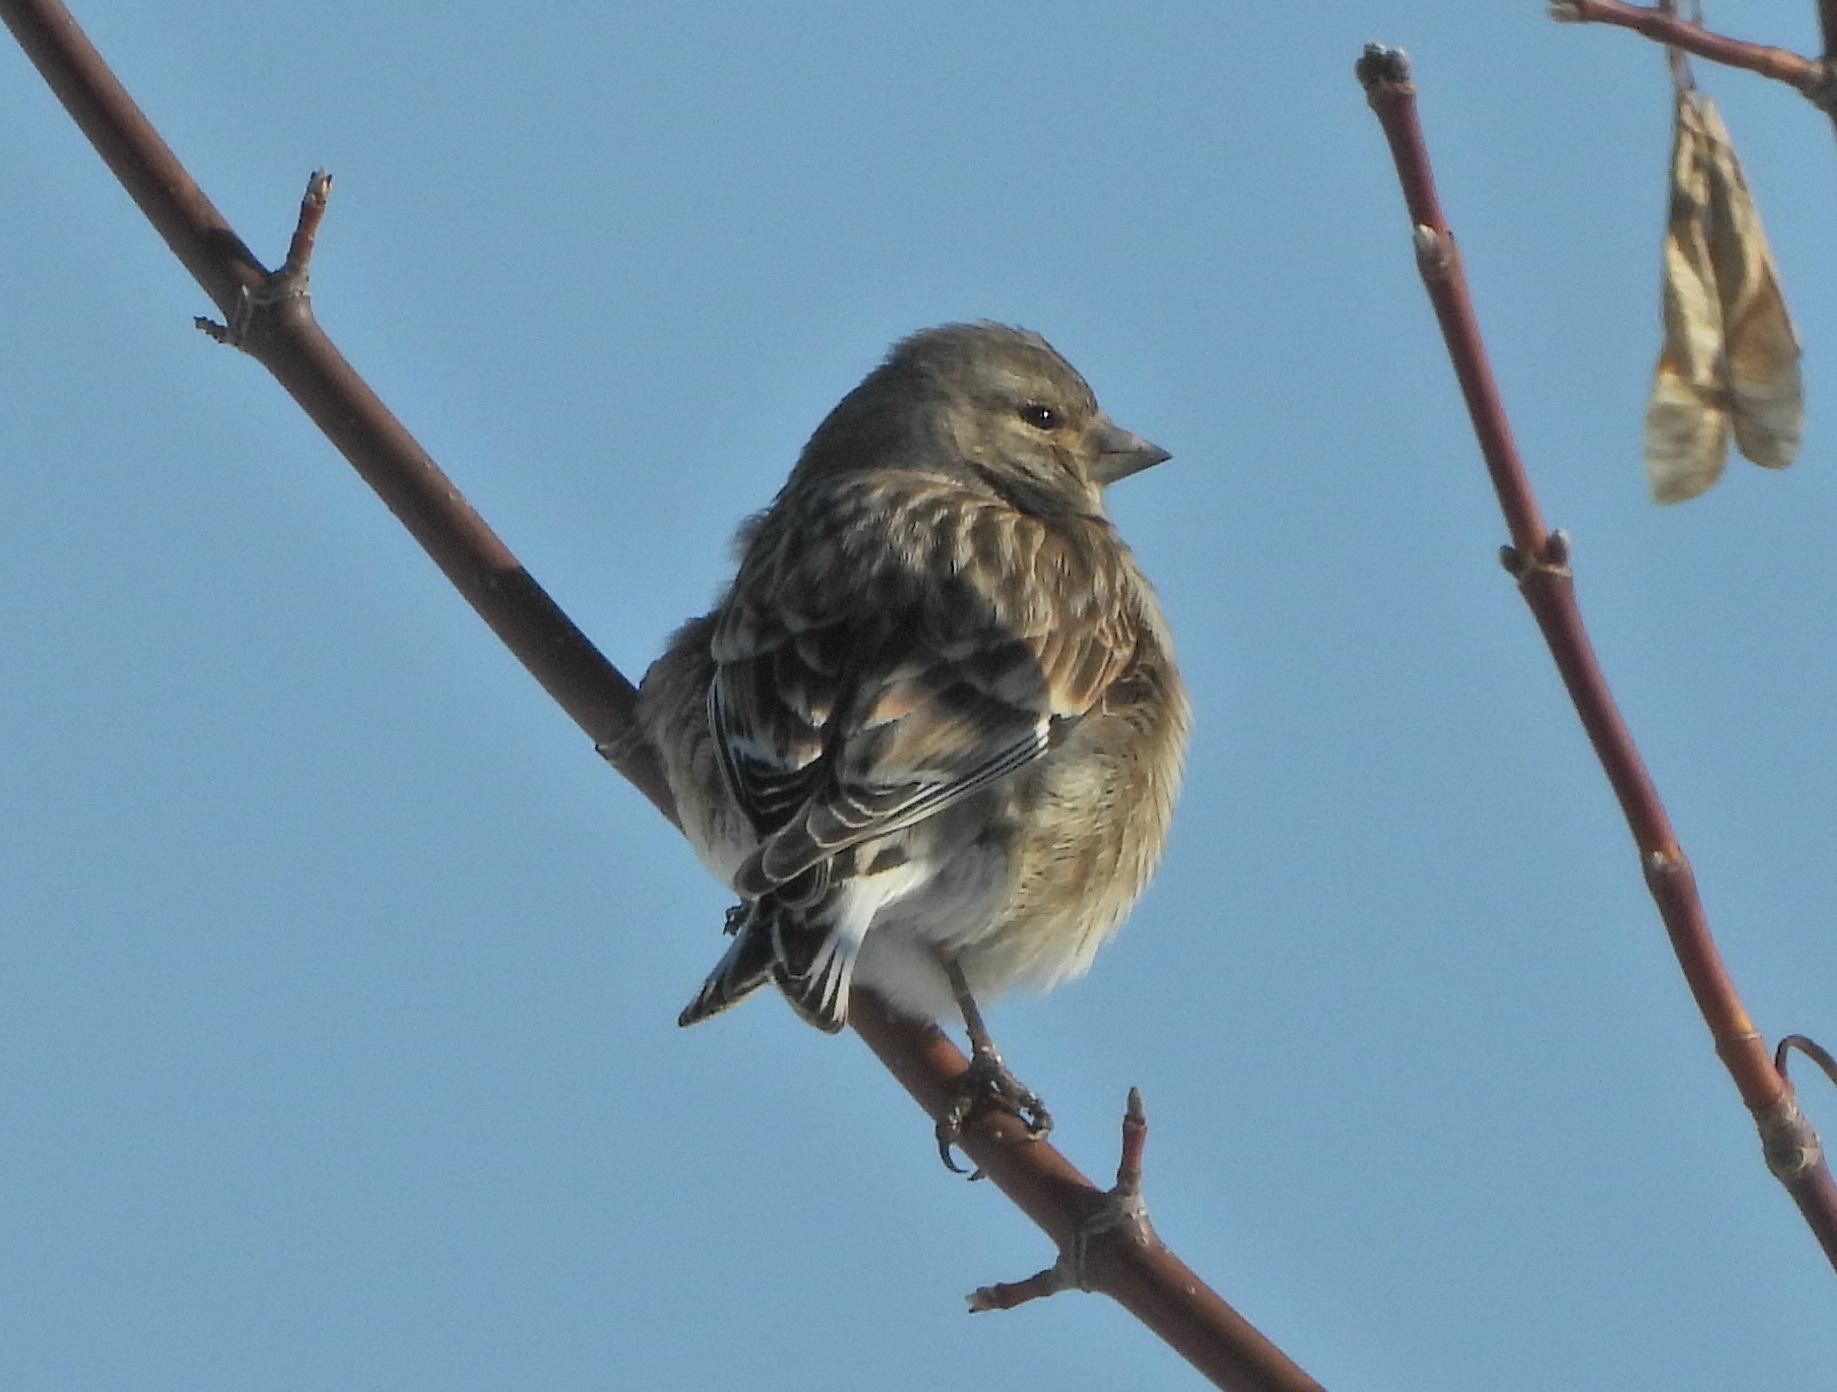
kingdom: Animalia
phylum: Chordata
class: Aves
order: Passeriformes
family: Fringillidae
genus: Linaria
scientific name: Linaria cannabina
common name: Common linnet
